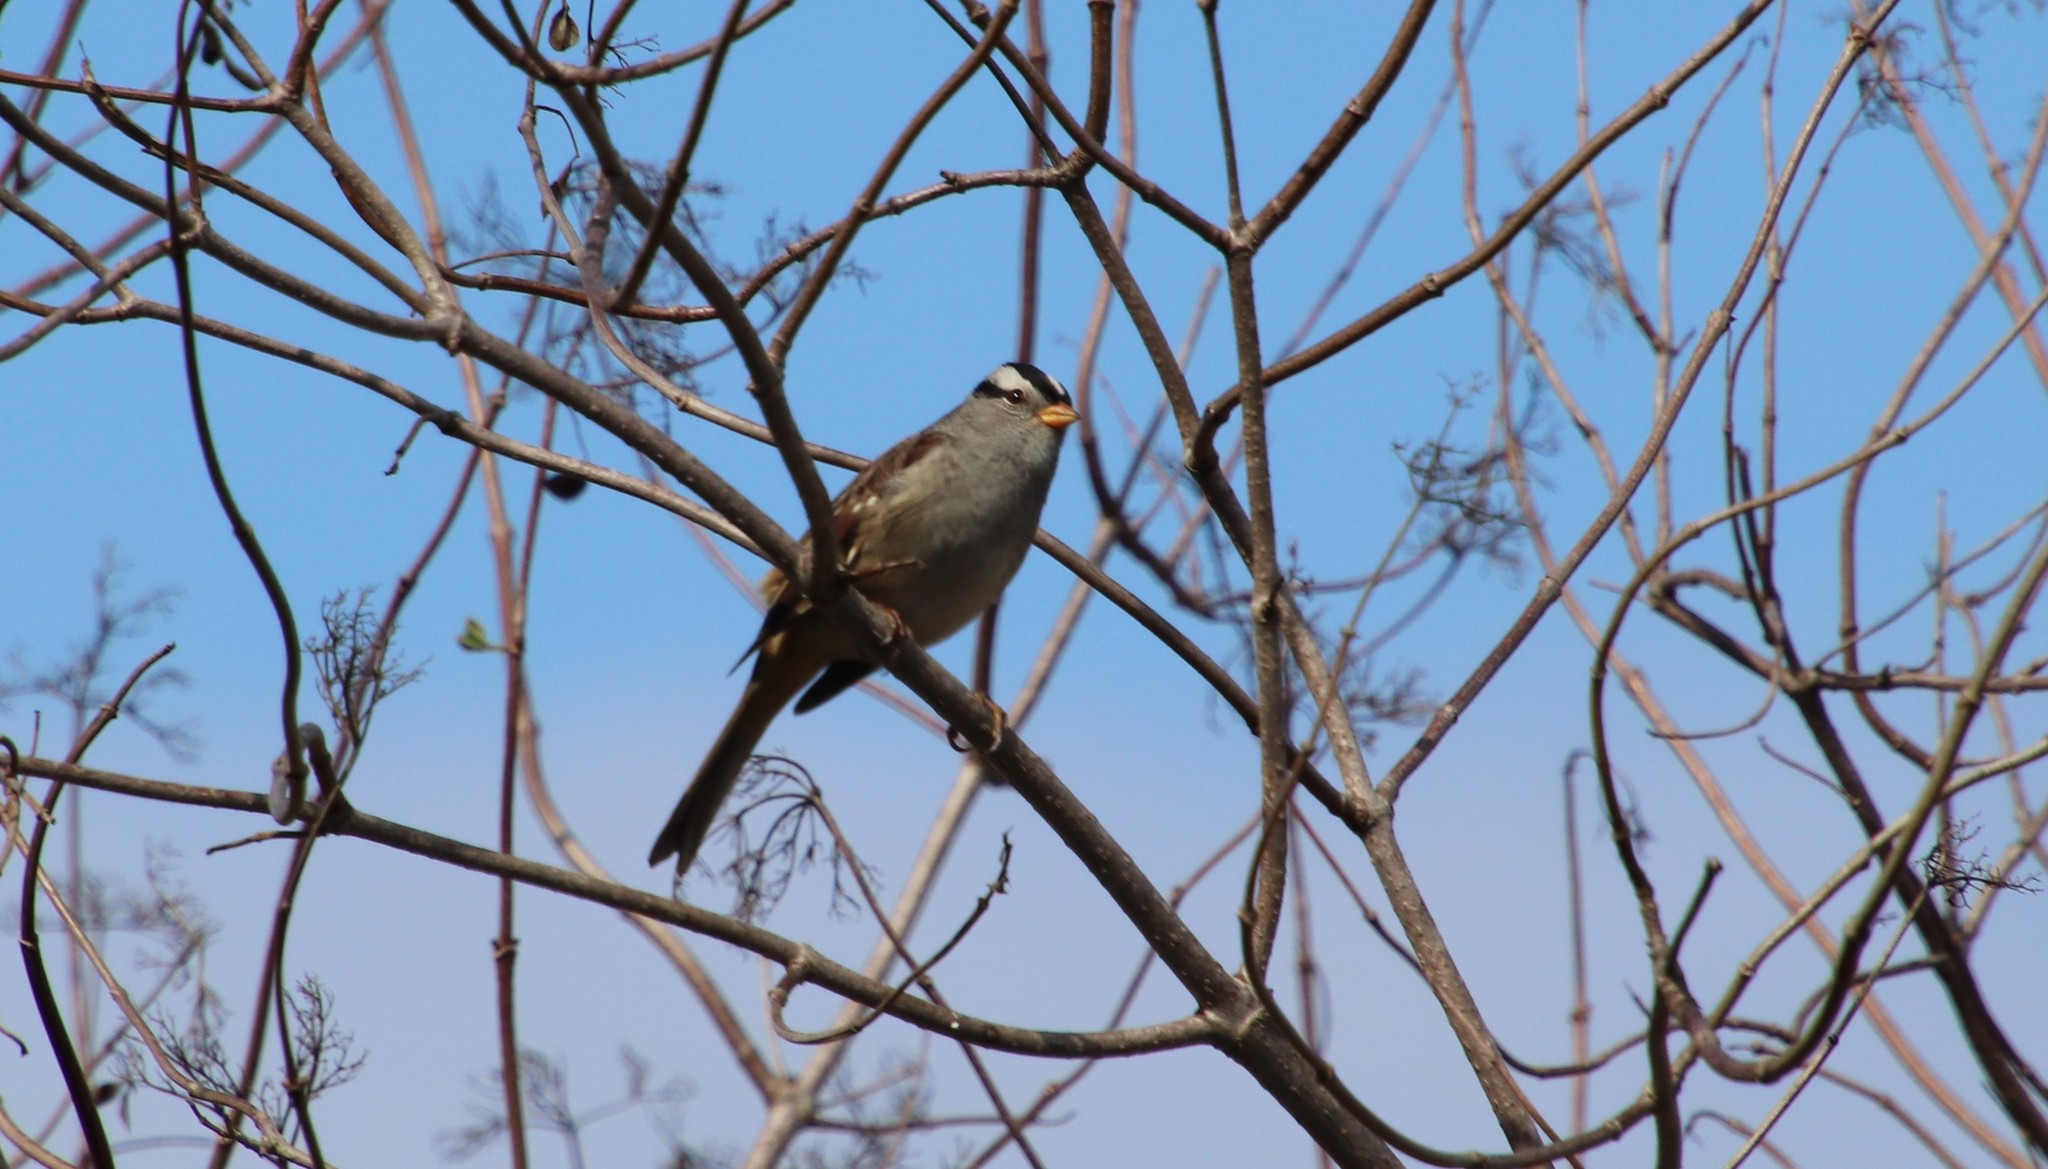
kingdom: Animalia
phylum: Chordata
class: Aves
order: Passeriformes
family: Passerellidae
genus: Zonotrichia
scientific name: Zonotrichia leucophrys
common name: White-crowned sparrow
